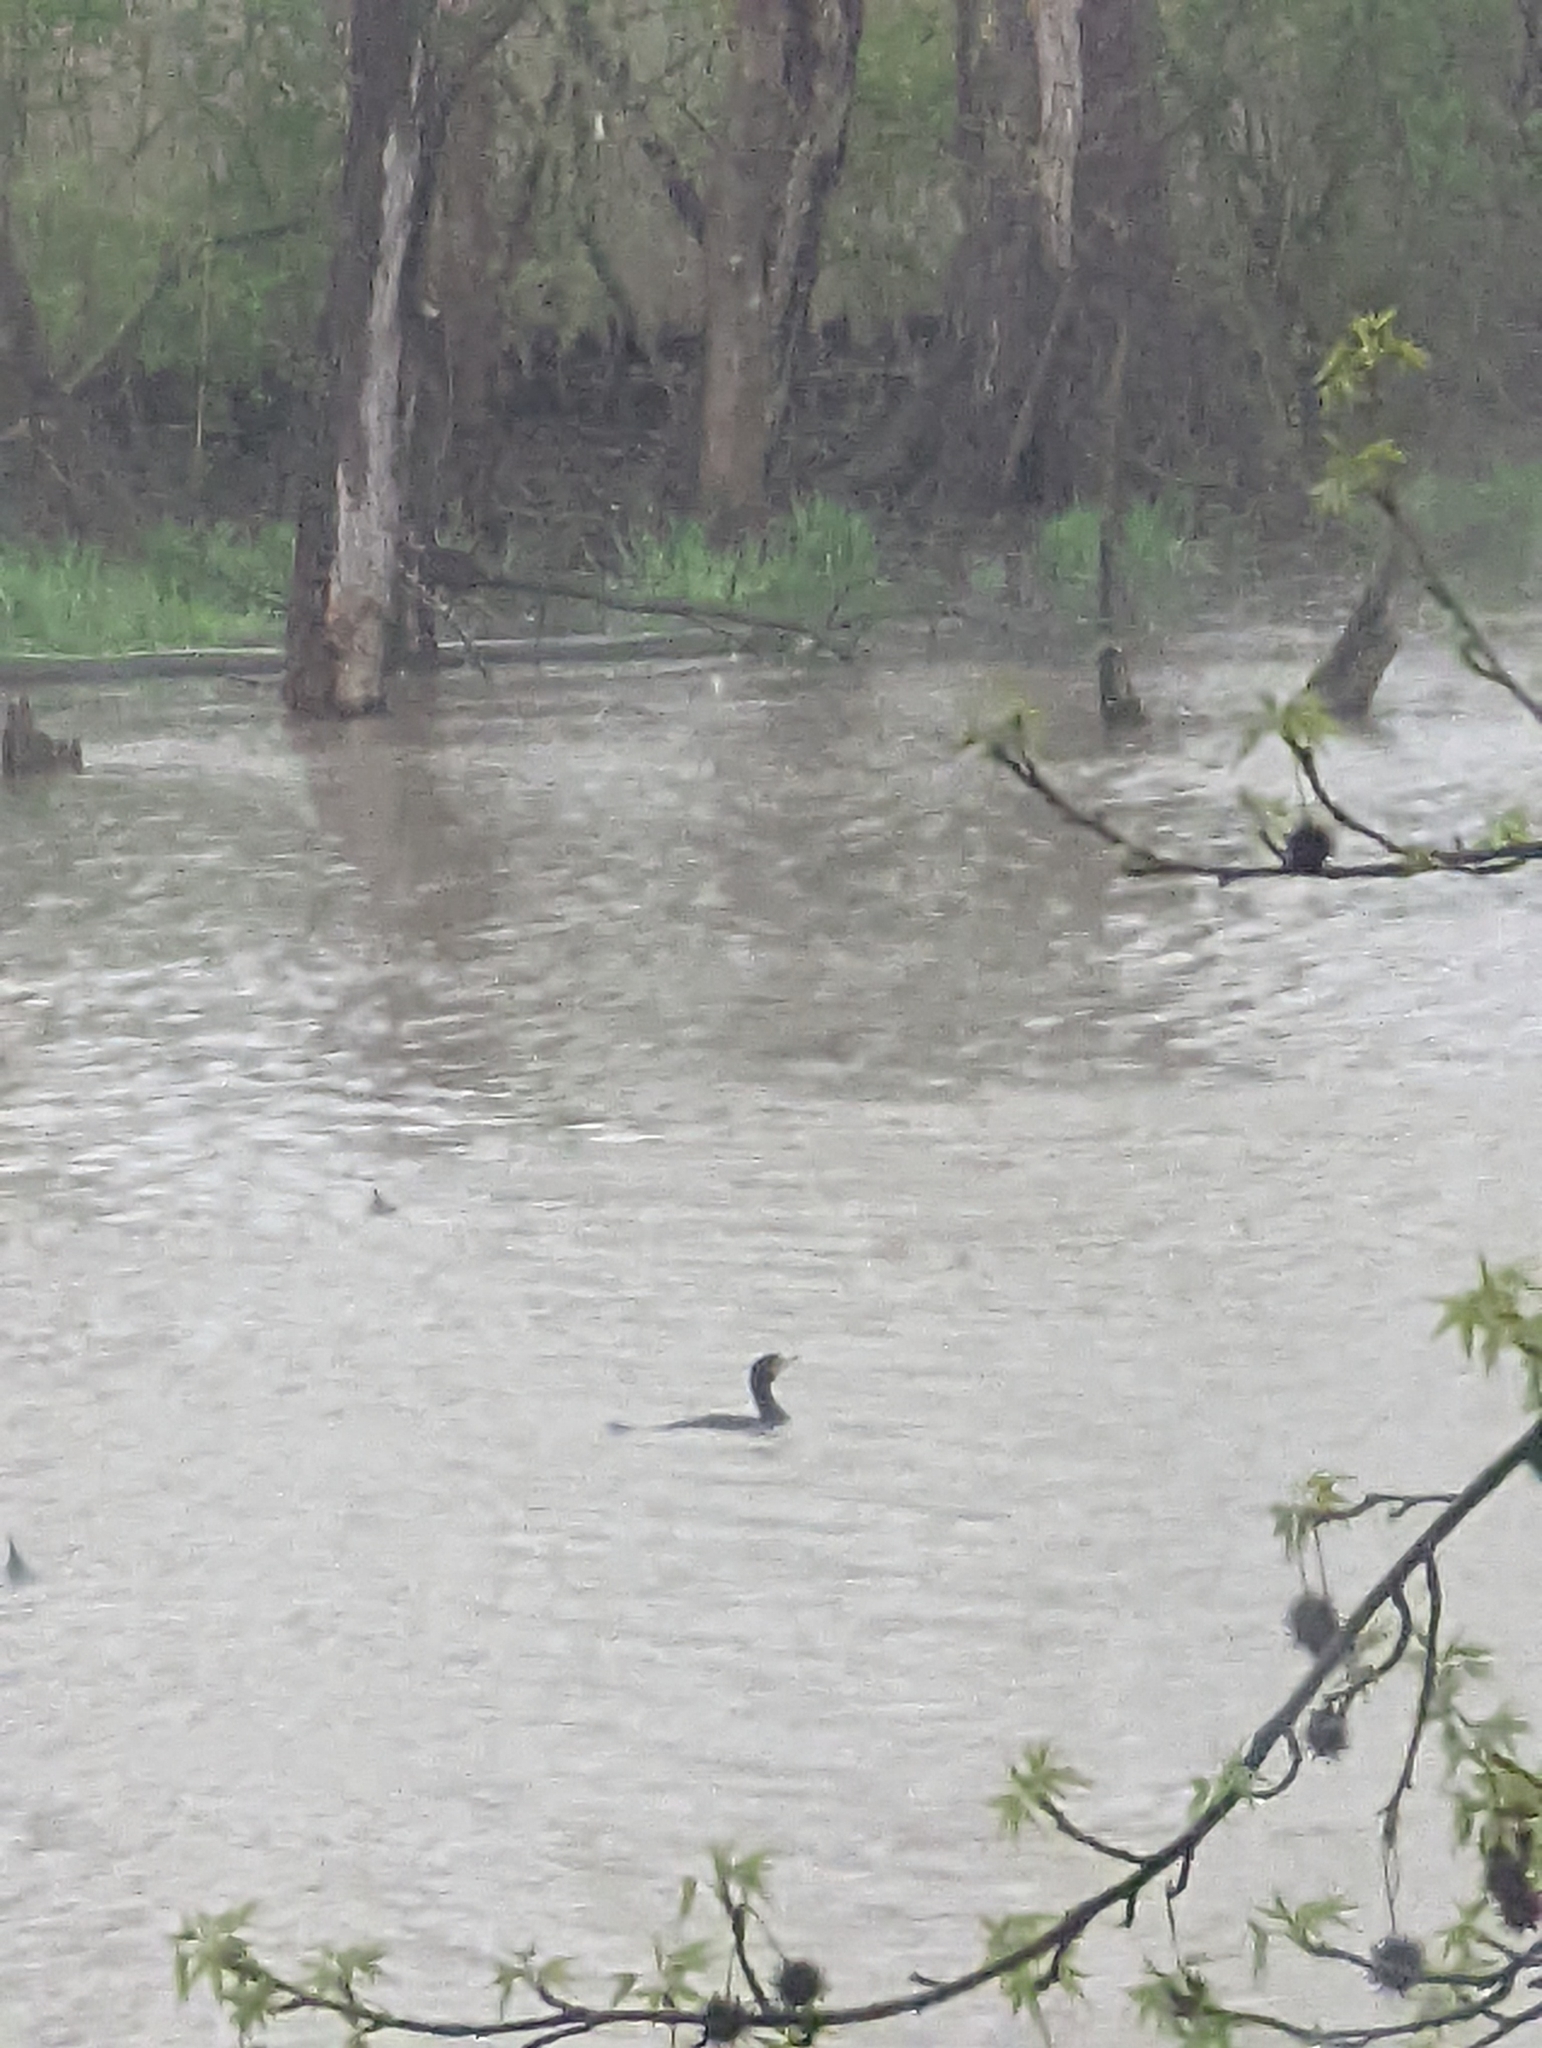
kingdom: Animalia
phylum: Chordata
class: Aves
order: Suliformes
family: Phalacrocoracidae
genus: Phalacrocorax
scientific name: Phalacrocorax auritus
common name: Double-crested cormorant
